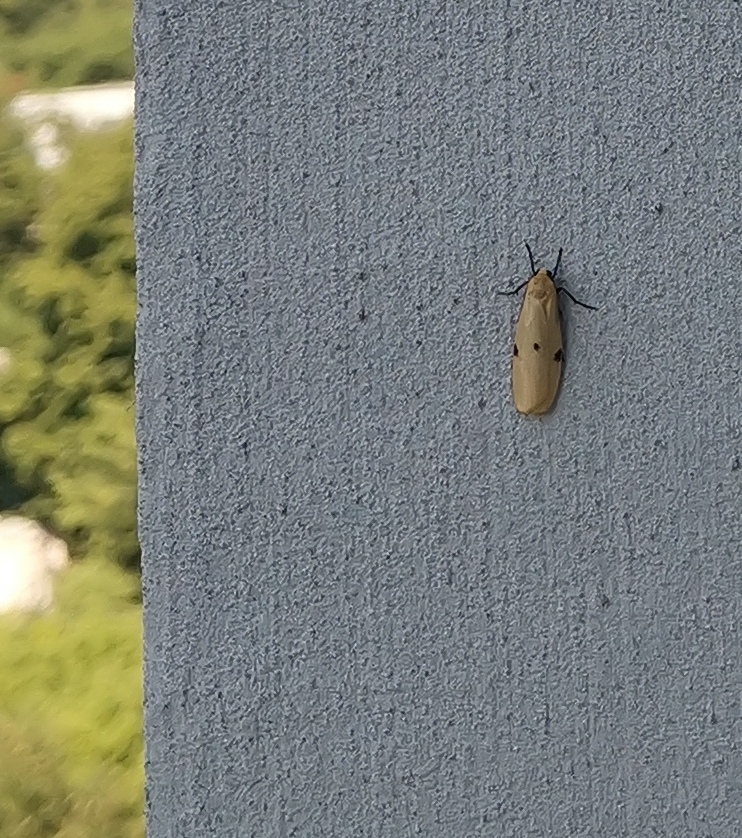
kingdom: Animalia
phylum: Arthropoda
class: Insecta
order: Lepidoptera
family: Erebidae
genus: Lithosia
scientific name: Lithosia quadra
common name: Four-spotted footman
